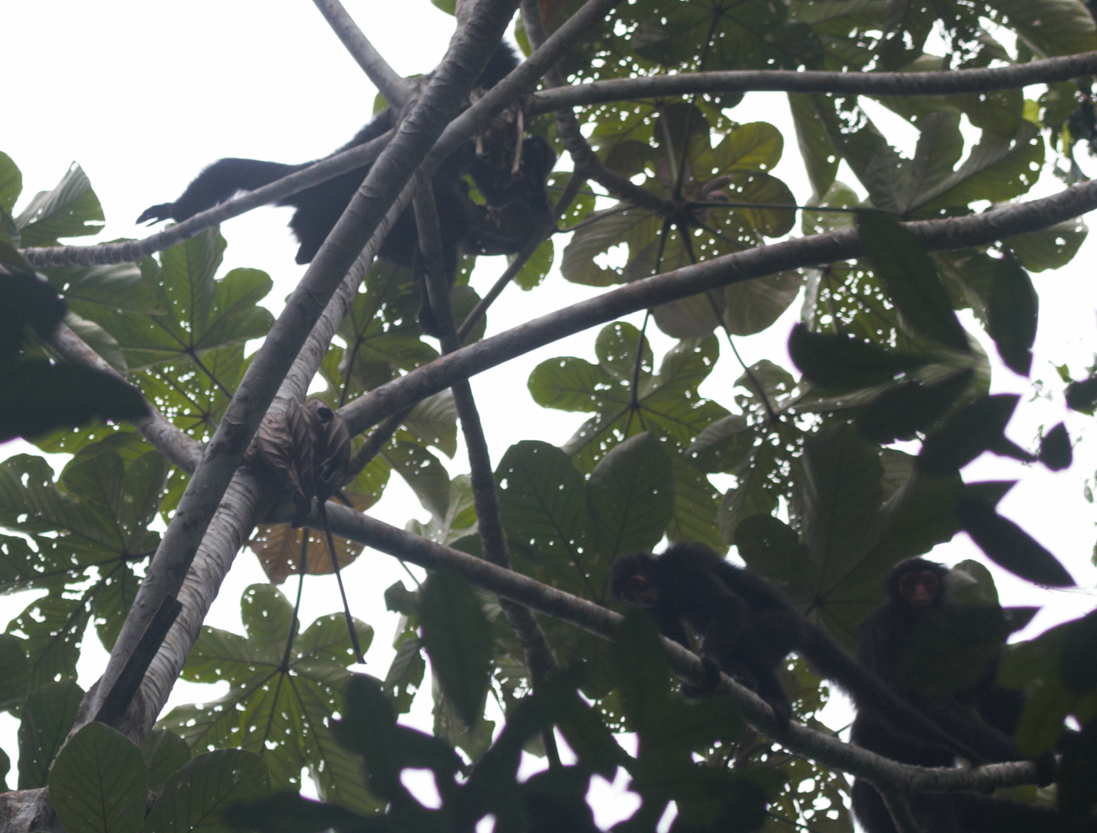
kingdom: Animalia
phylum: Chordata
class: Mammalia
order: Primates
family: Atelidae
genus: Ateles
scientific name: Ateles paniscus
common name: Red-faced spider monkey
